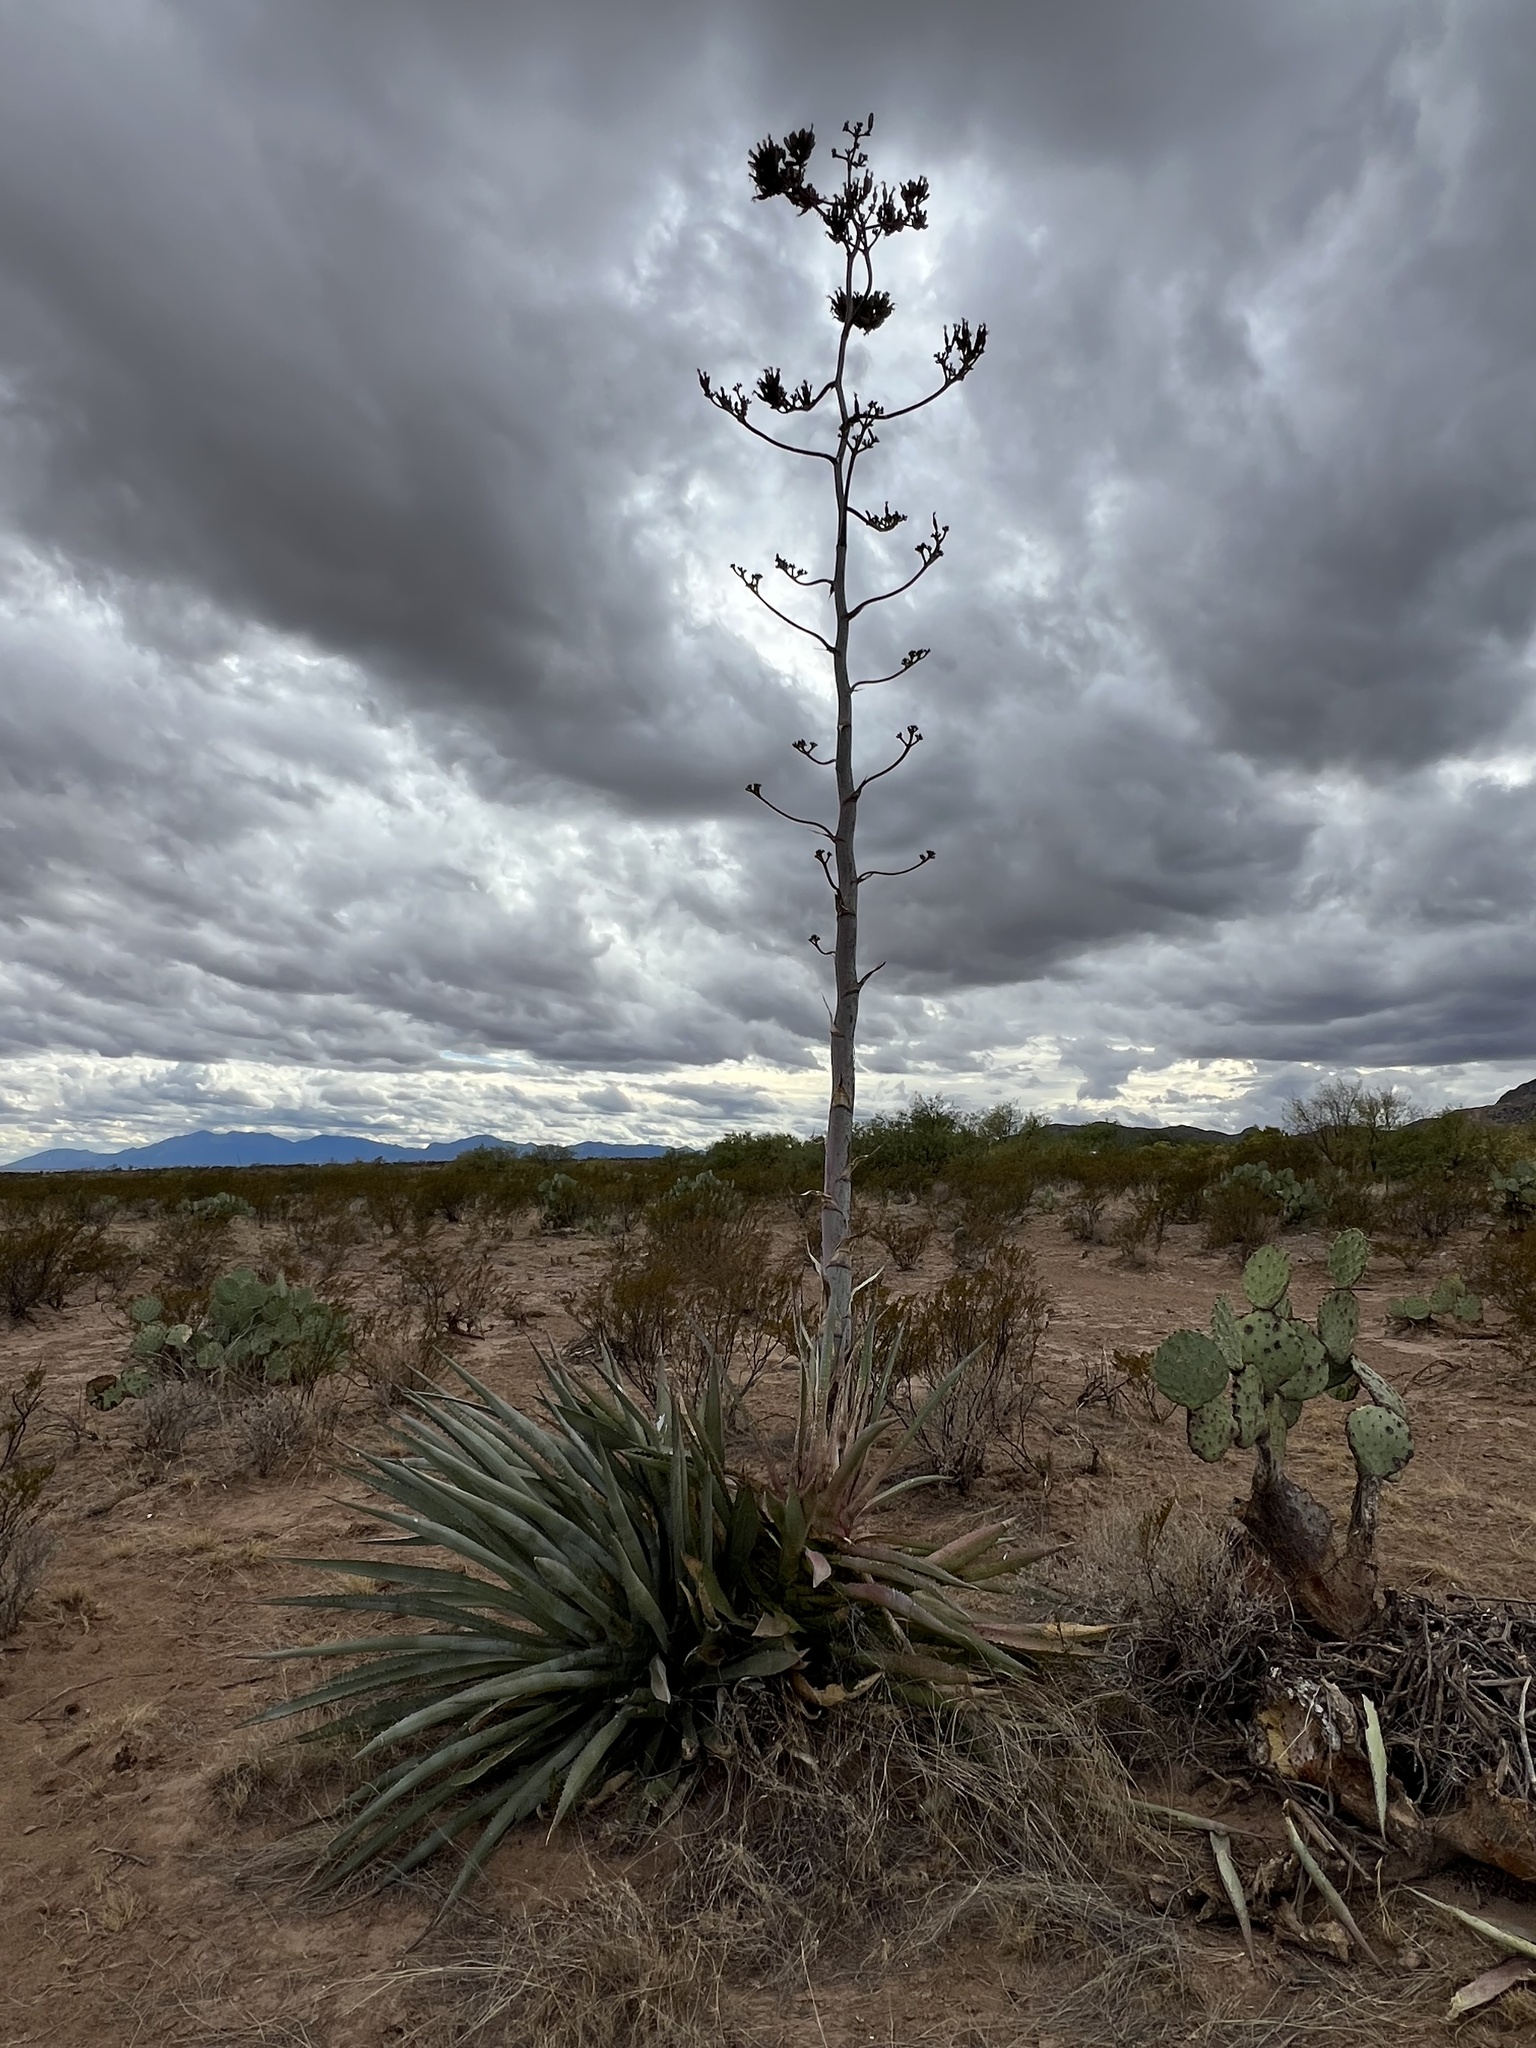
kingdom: Plantae
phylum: Tracheophyta
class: Liliopsida
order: Asparagales
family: Asparagaceae
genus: Agave
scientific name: Agave palmeri
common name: Palmer agave
